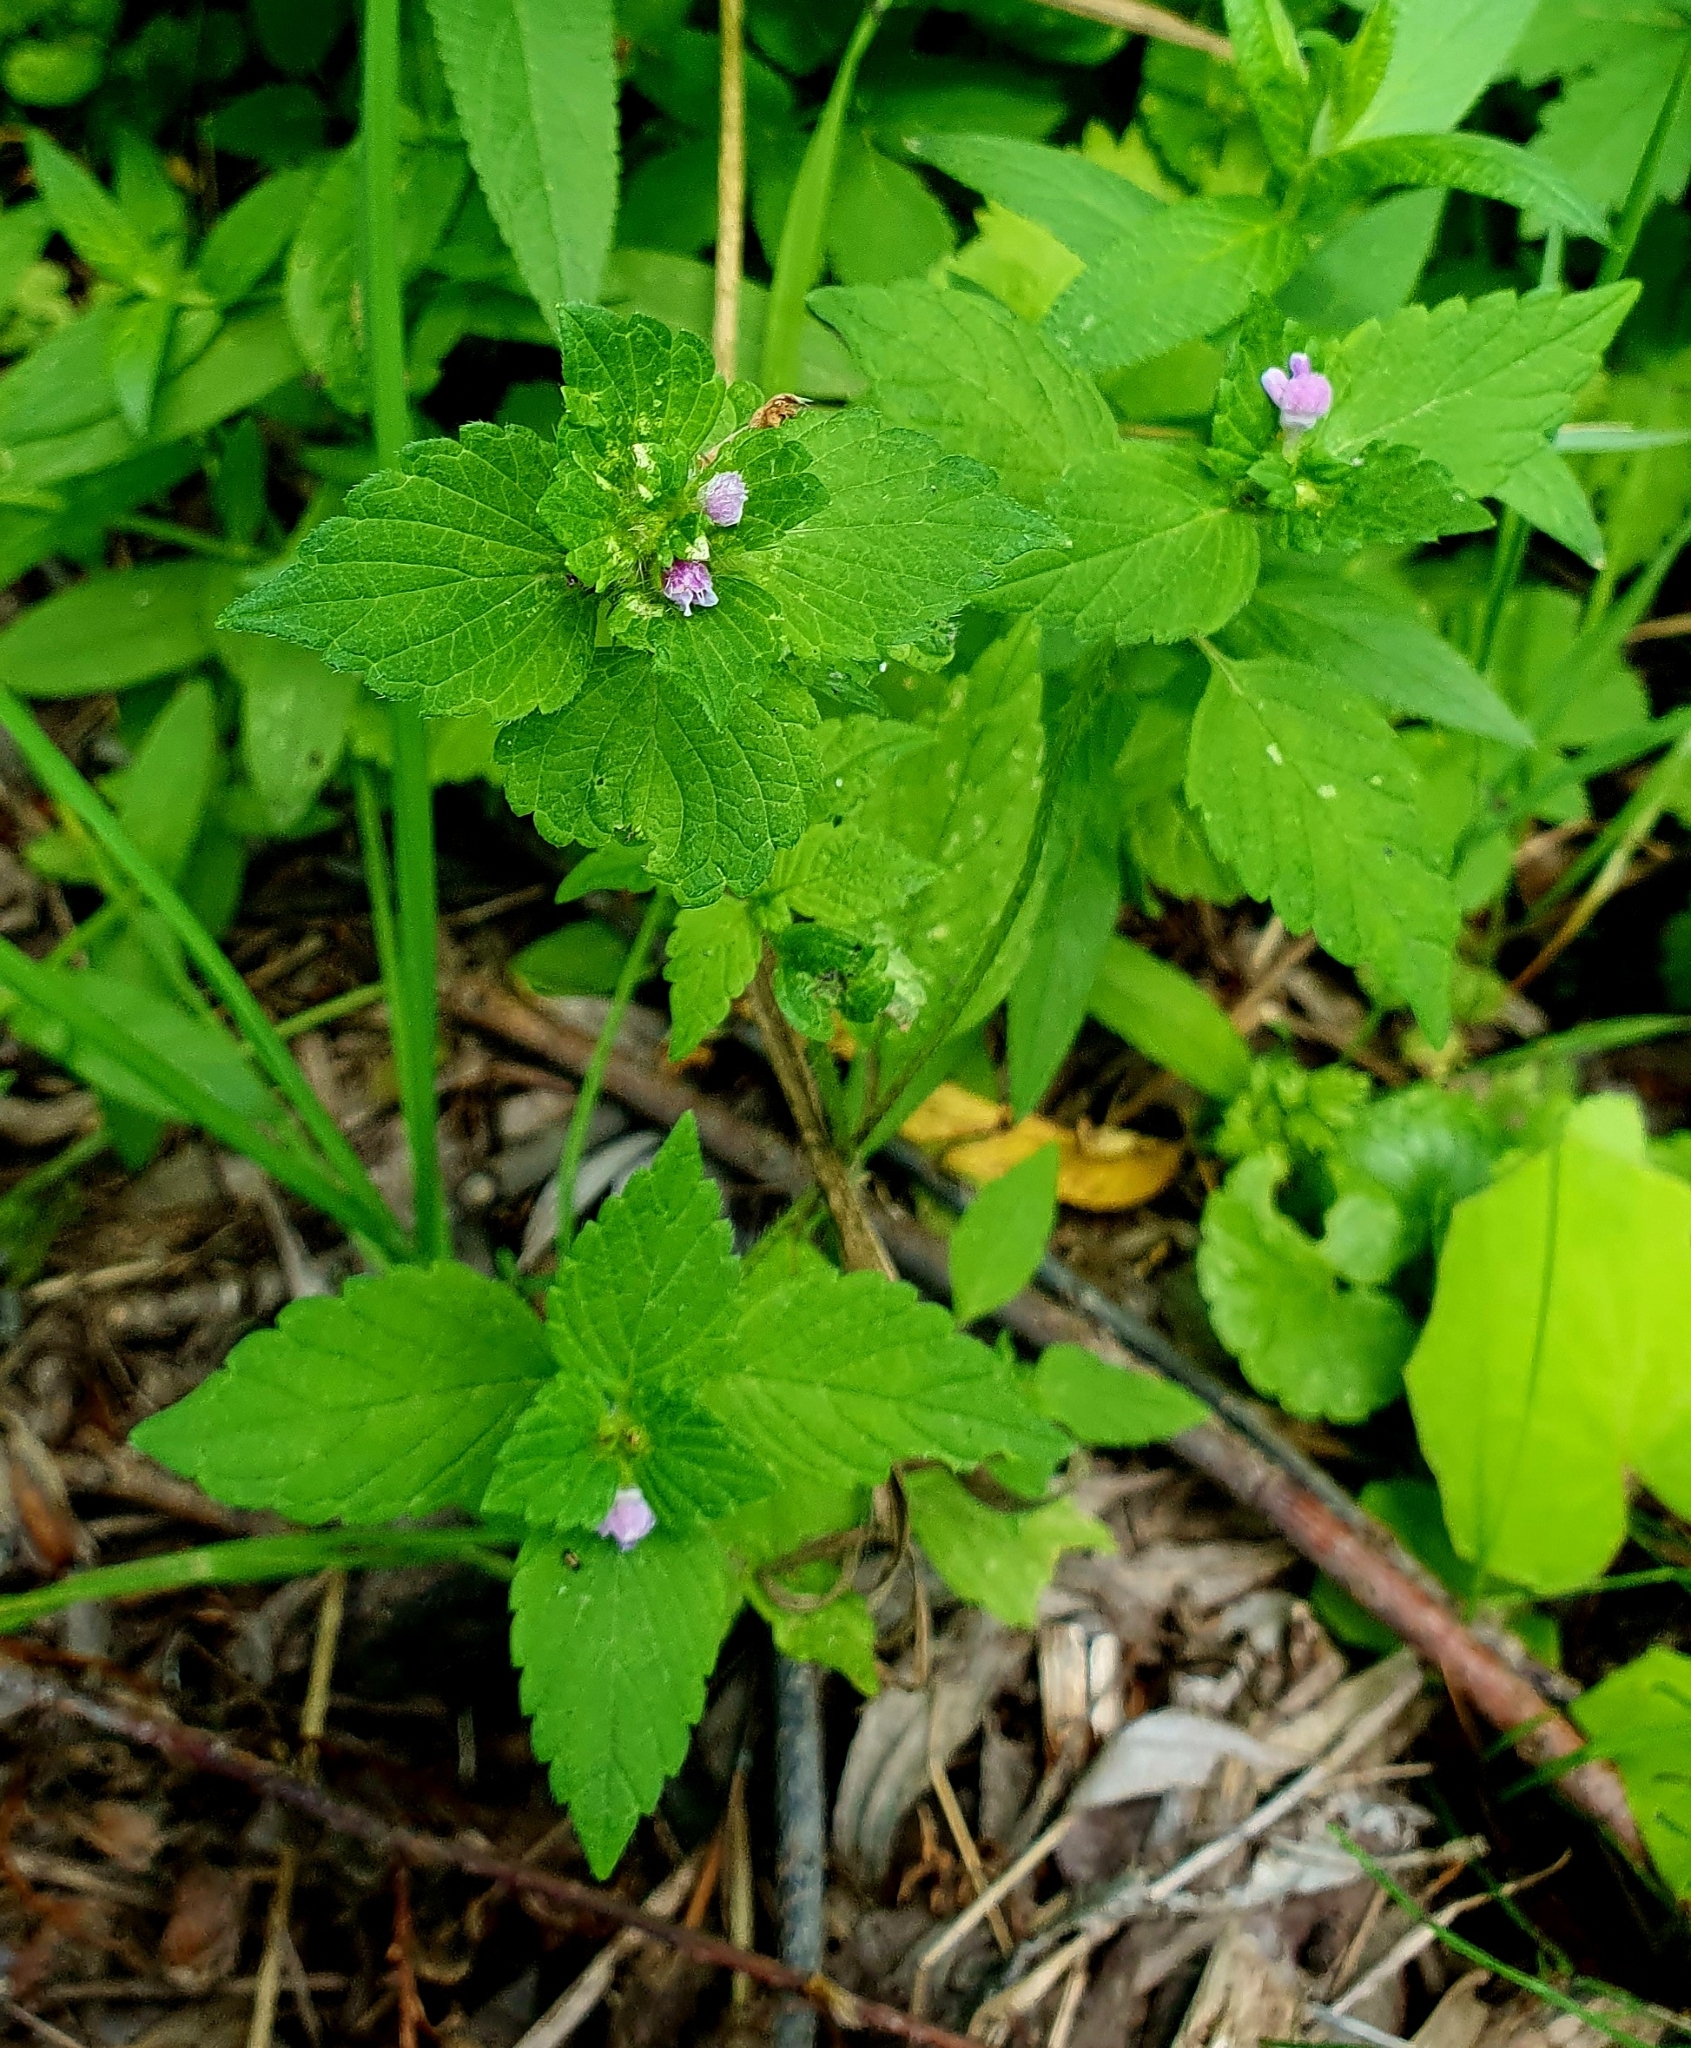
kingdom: Plantae
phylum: Tracheophyta
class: Magnoliopsida
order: Lamiales
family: Lamiaceae
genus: Galeopsis
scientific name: Galeopsis ladanum
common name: Broad-leaved hemp-nettle
